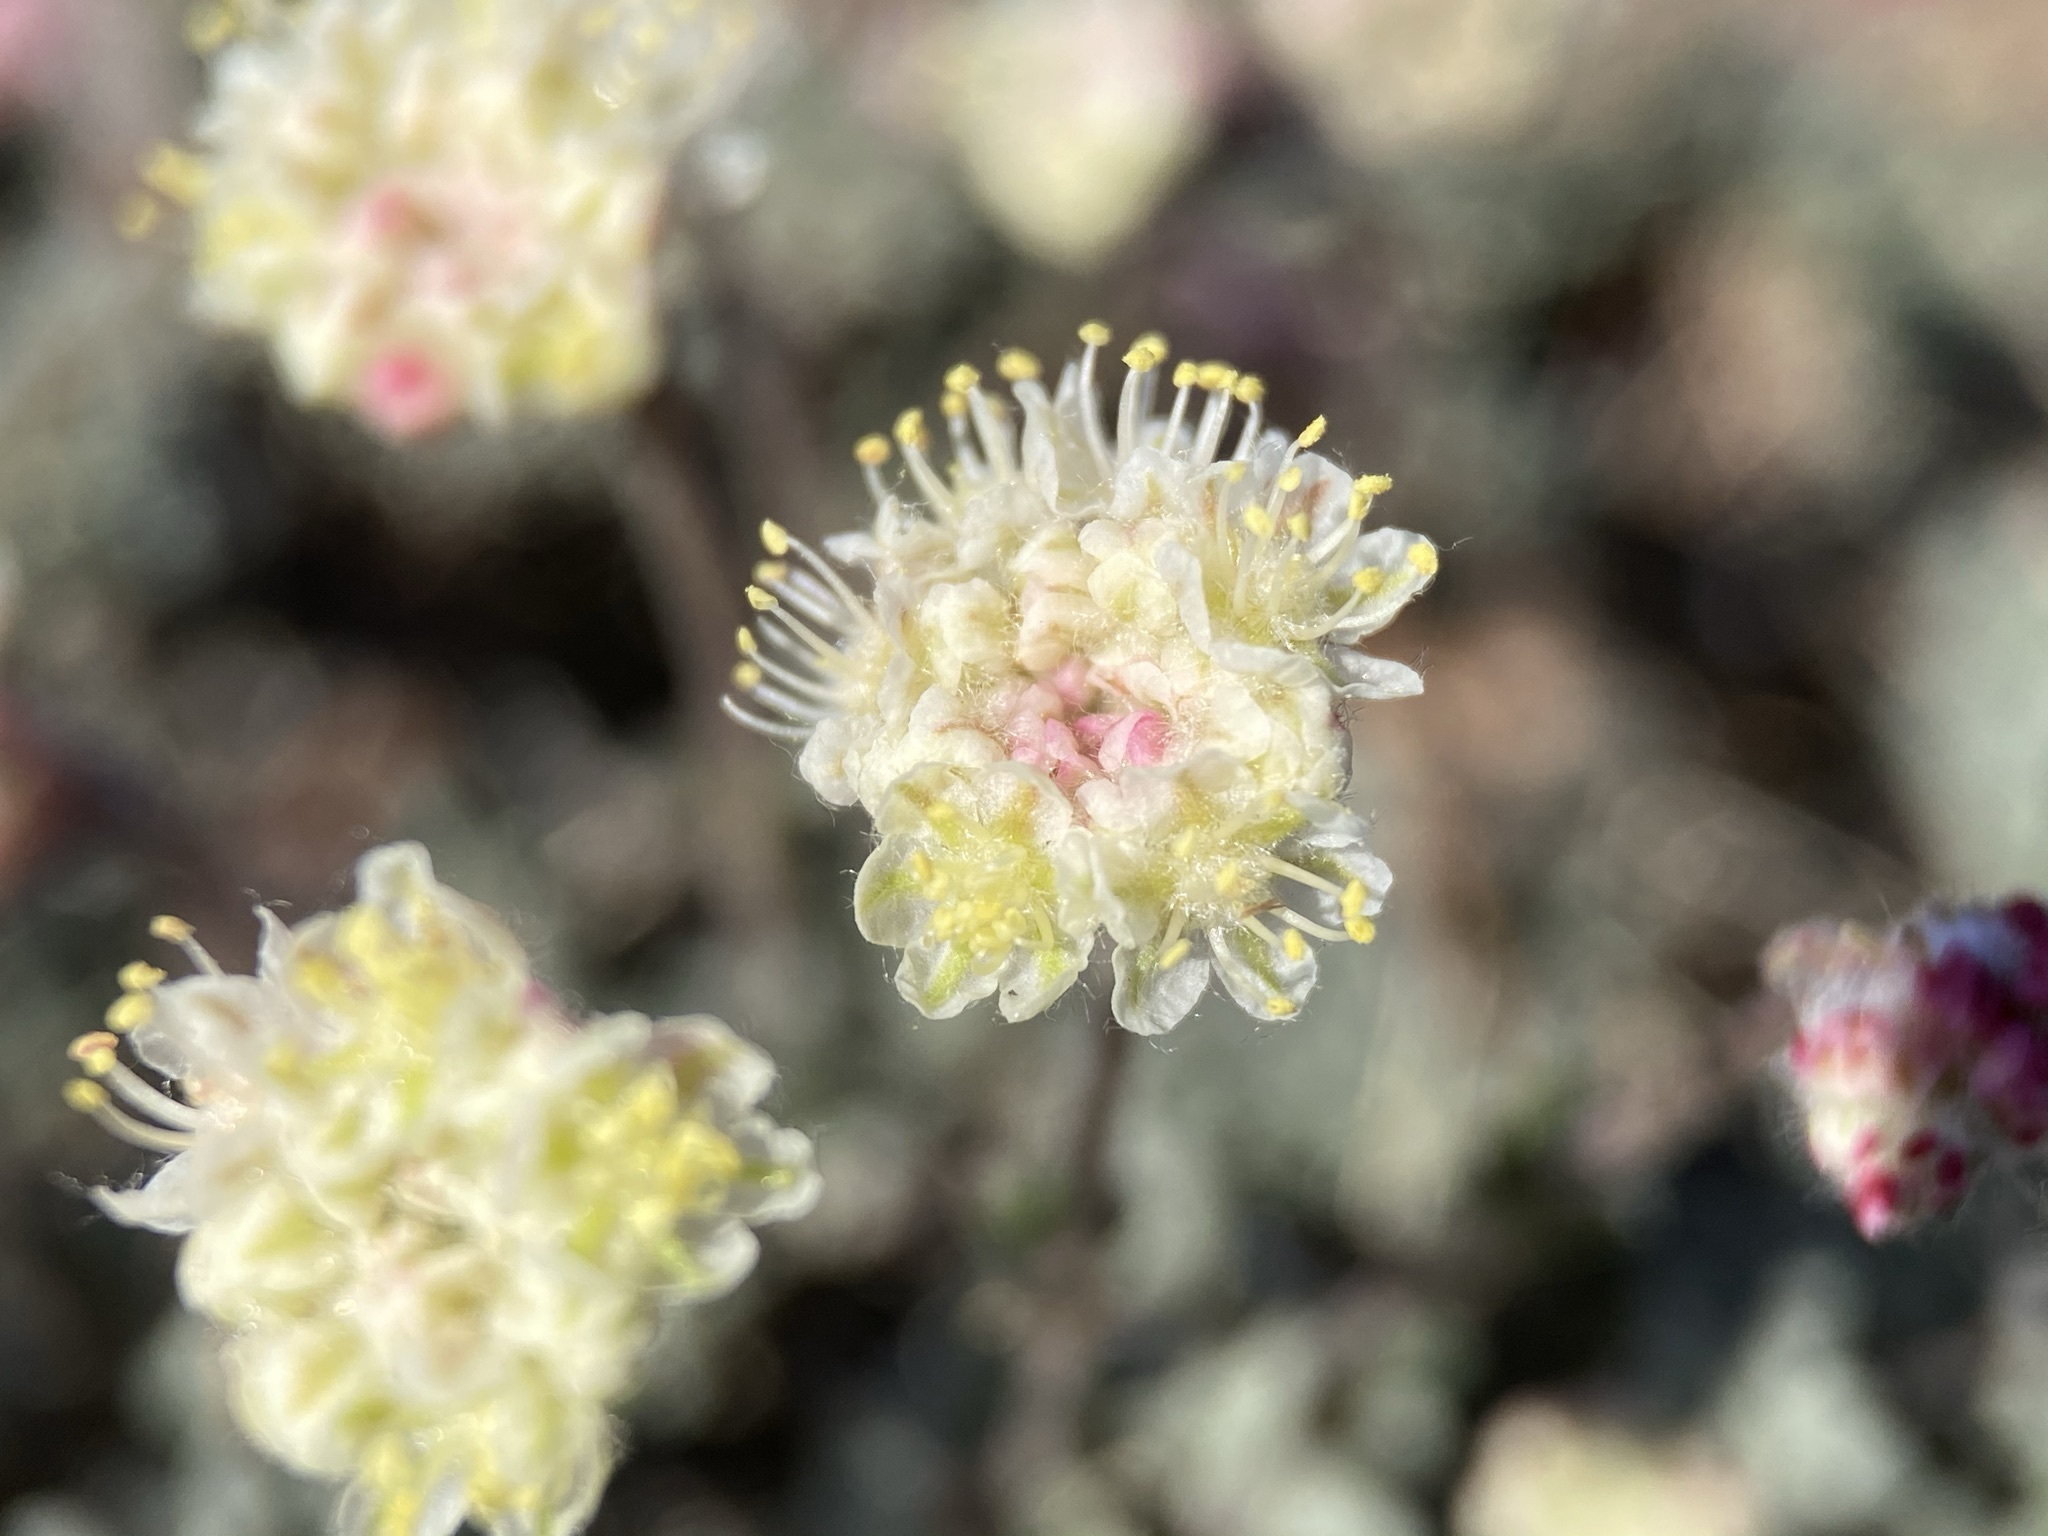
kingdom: Plantae
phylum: Tracheophyta
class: Magnoliopsida
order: Caryophyllales
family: Polygonaceae
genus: Eriogonum
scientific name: Eriogonum thymoides
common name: Thyme-leaf wild buckwheat
